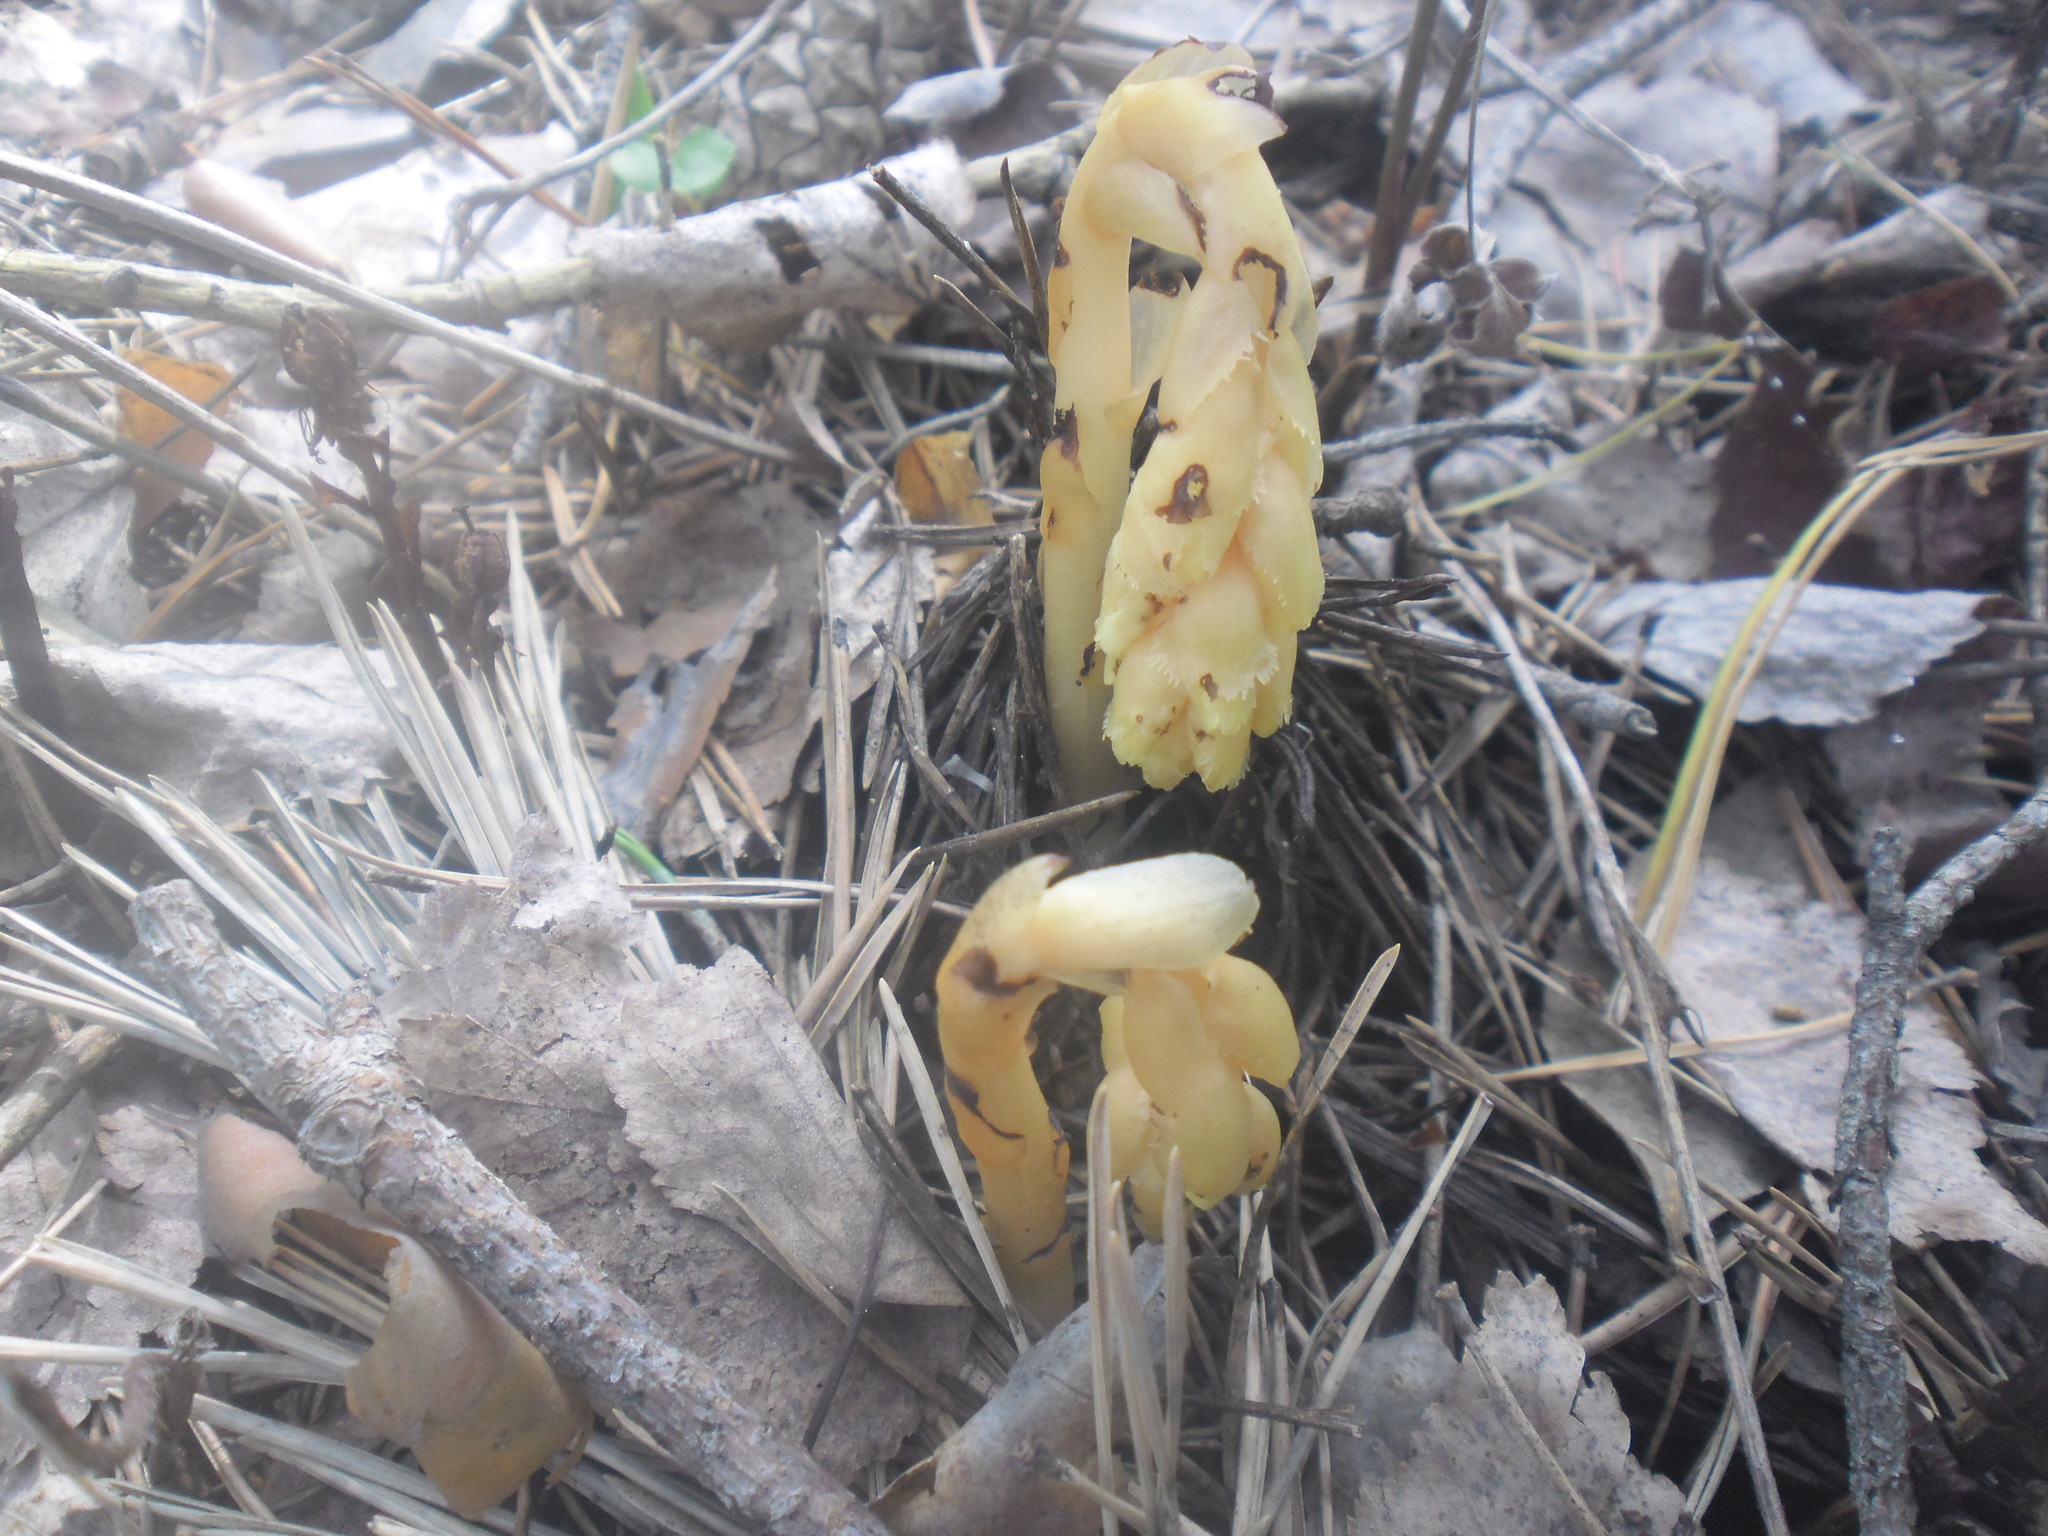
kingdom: Plantae
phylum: Tracheophyta
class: Magnoliopsida
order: Ericales
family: Ericaceae
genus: Hypopitys
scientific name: Hypopitys monotropa
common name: Yellow bird's-nest
